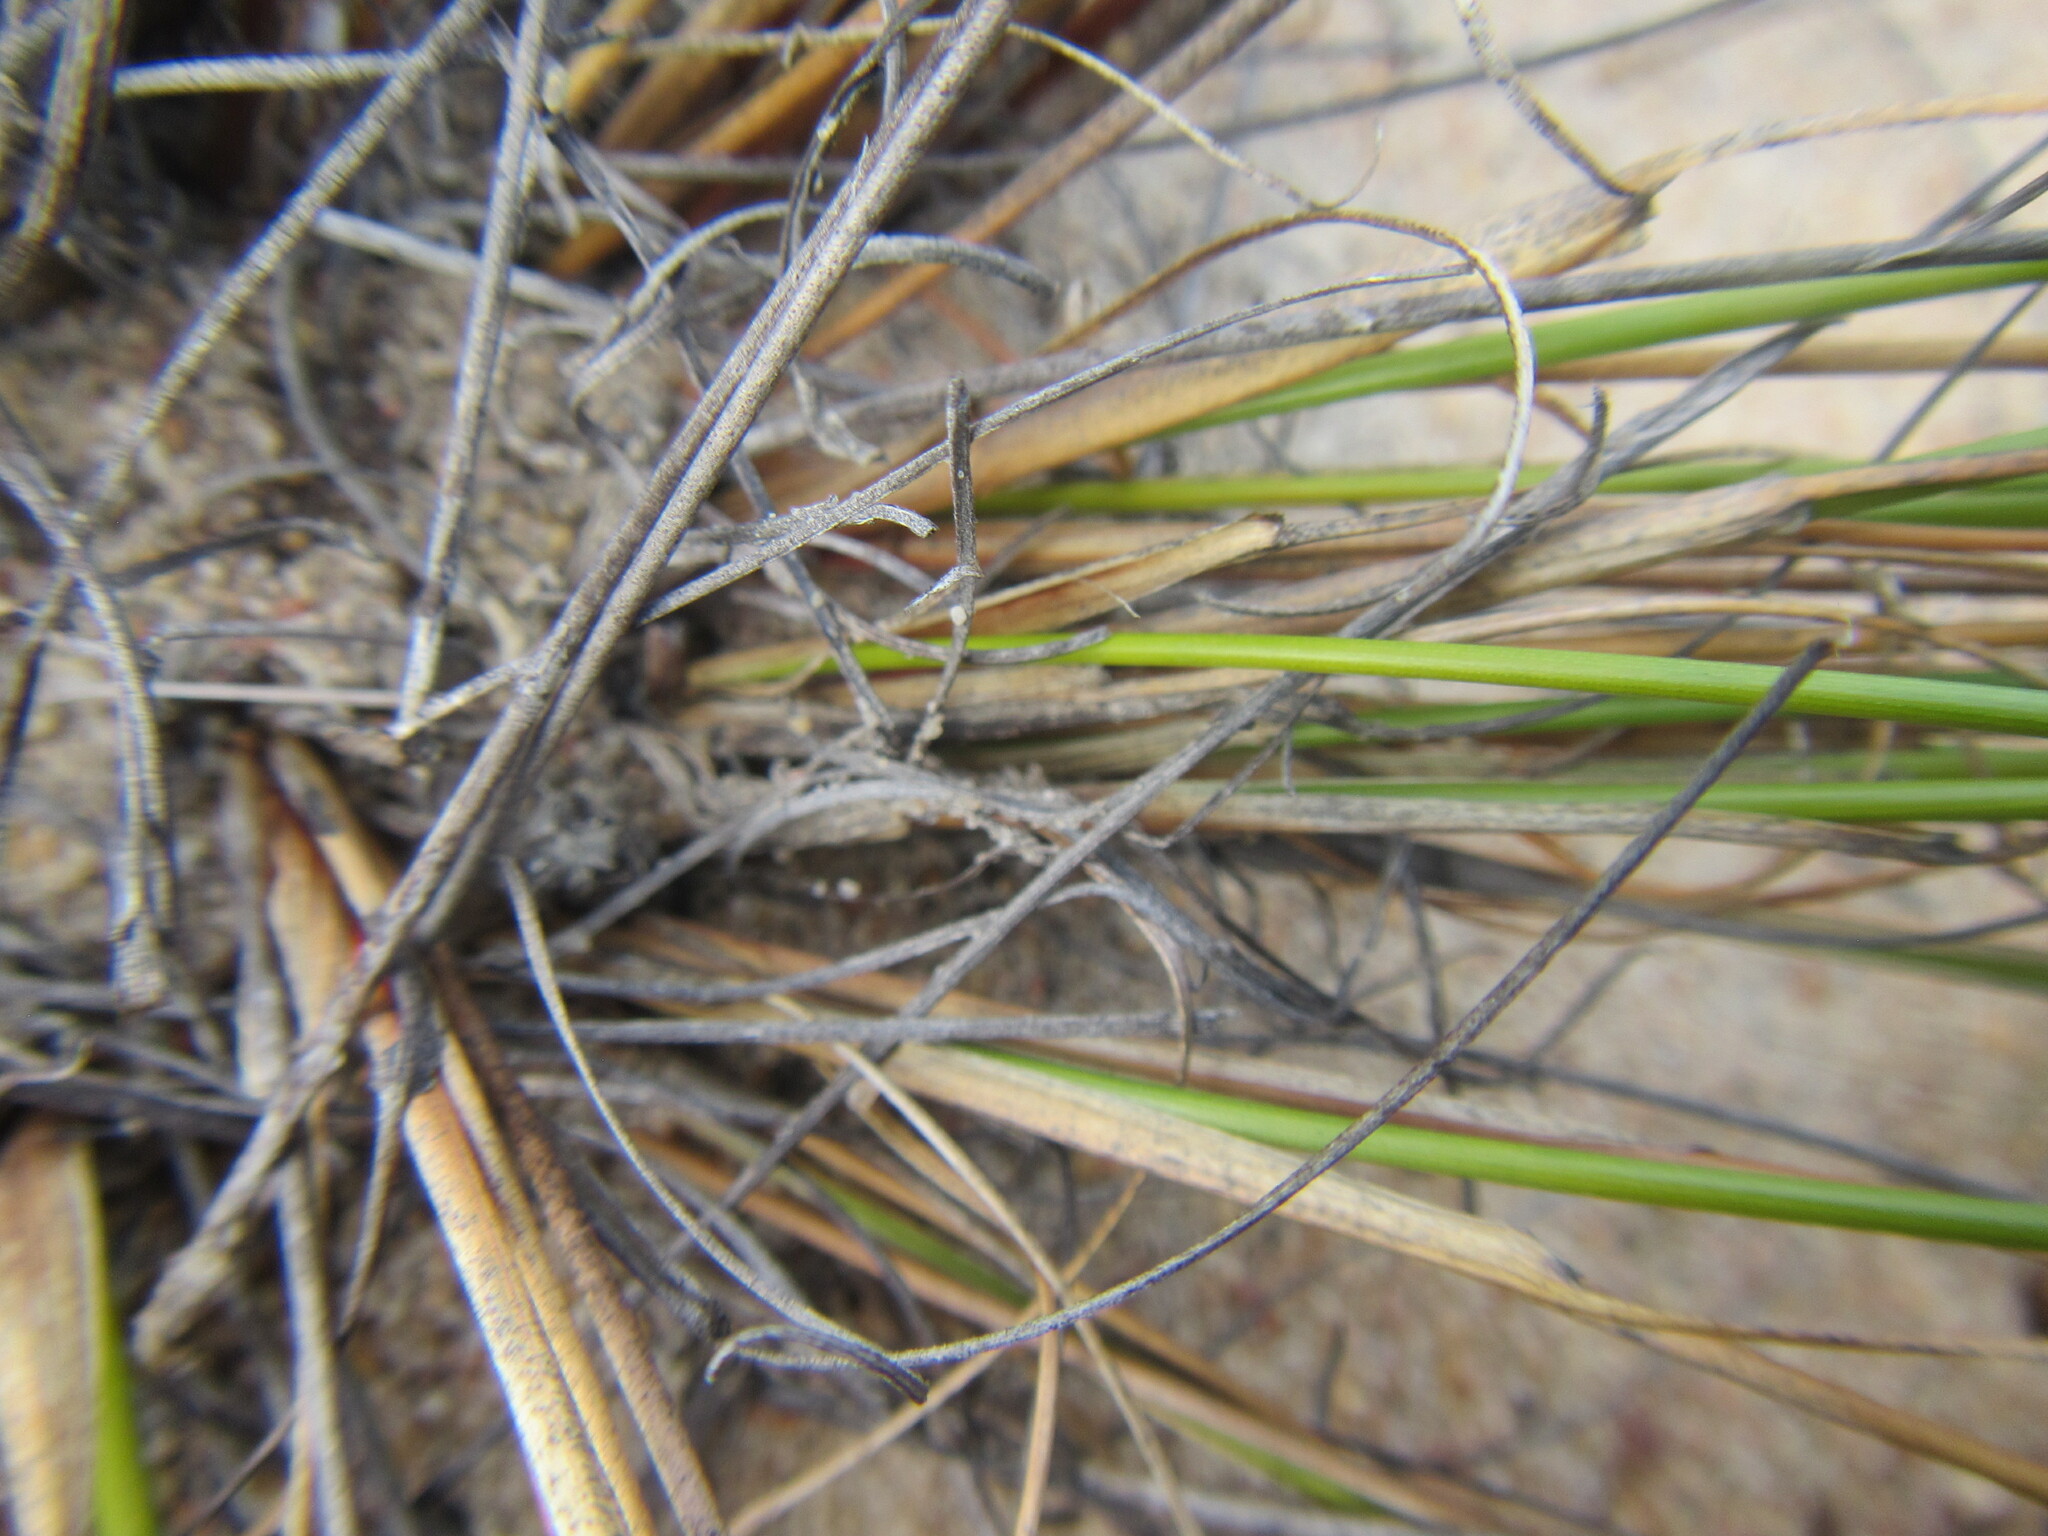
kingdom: Plantae
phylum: Tracheophyta
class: Liliopsida
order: Poales
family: Cyperaceae
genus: Schoenus
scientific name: Schoenus aureus
